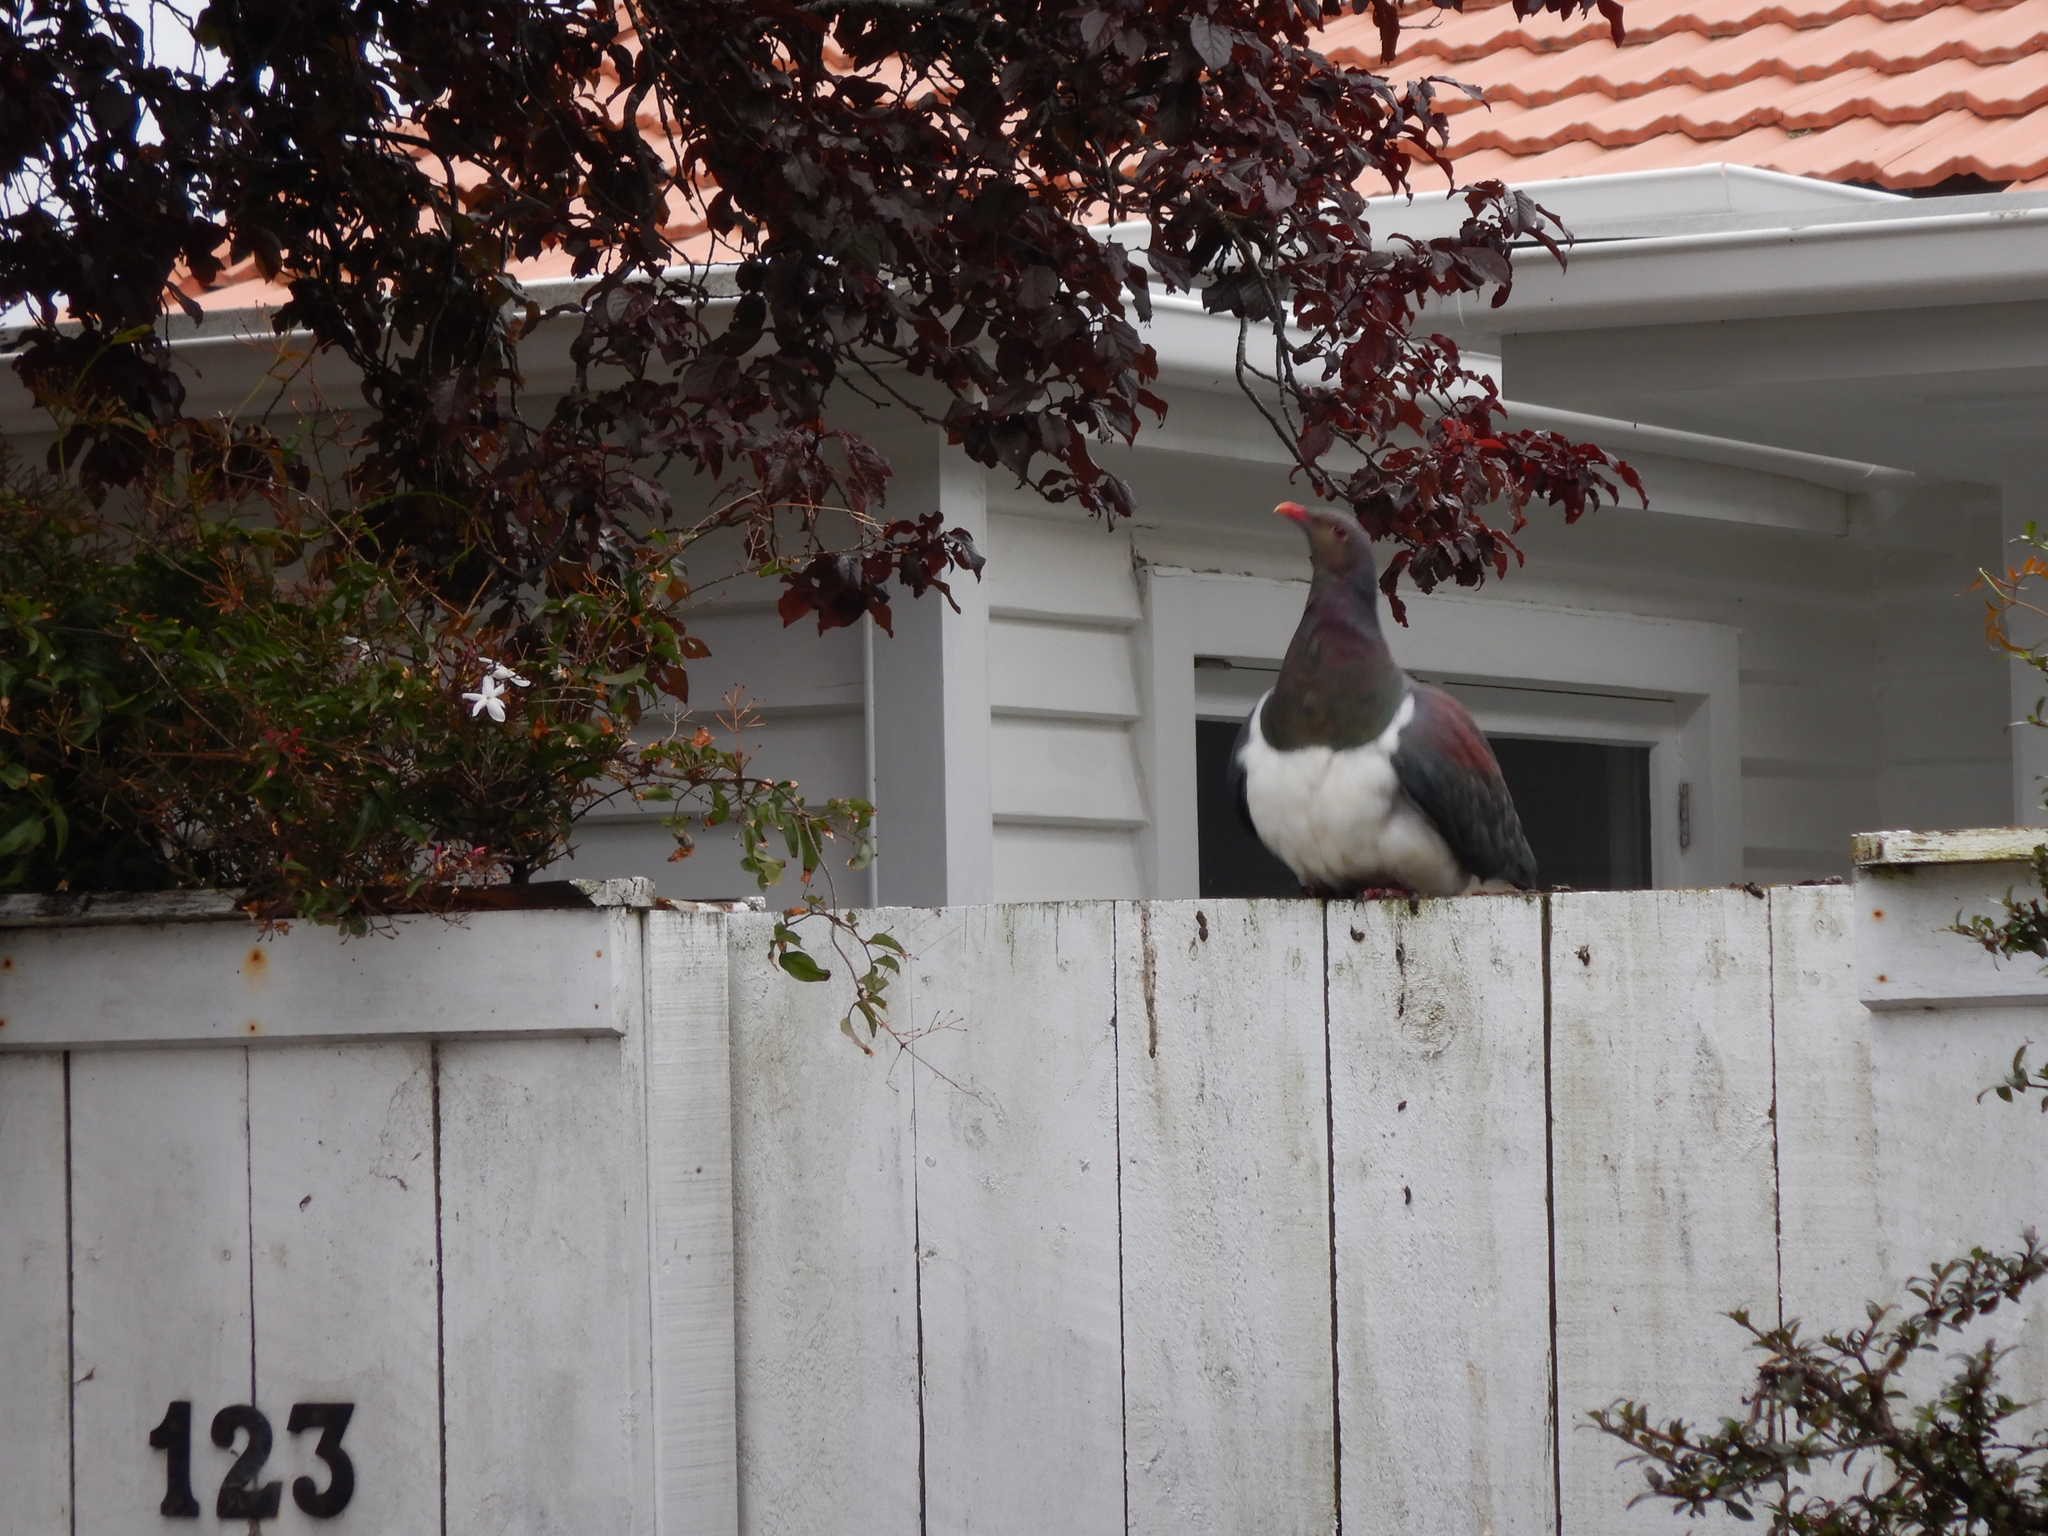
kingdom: Animalia
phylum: Chordata
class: Aves
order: Columbiformes
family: Columbidae
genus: Hemiphaga
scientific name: Hemiphaga novaeseelandiae
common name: New zealand pigeon
